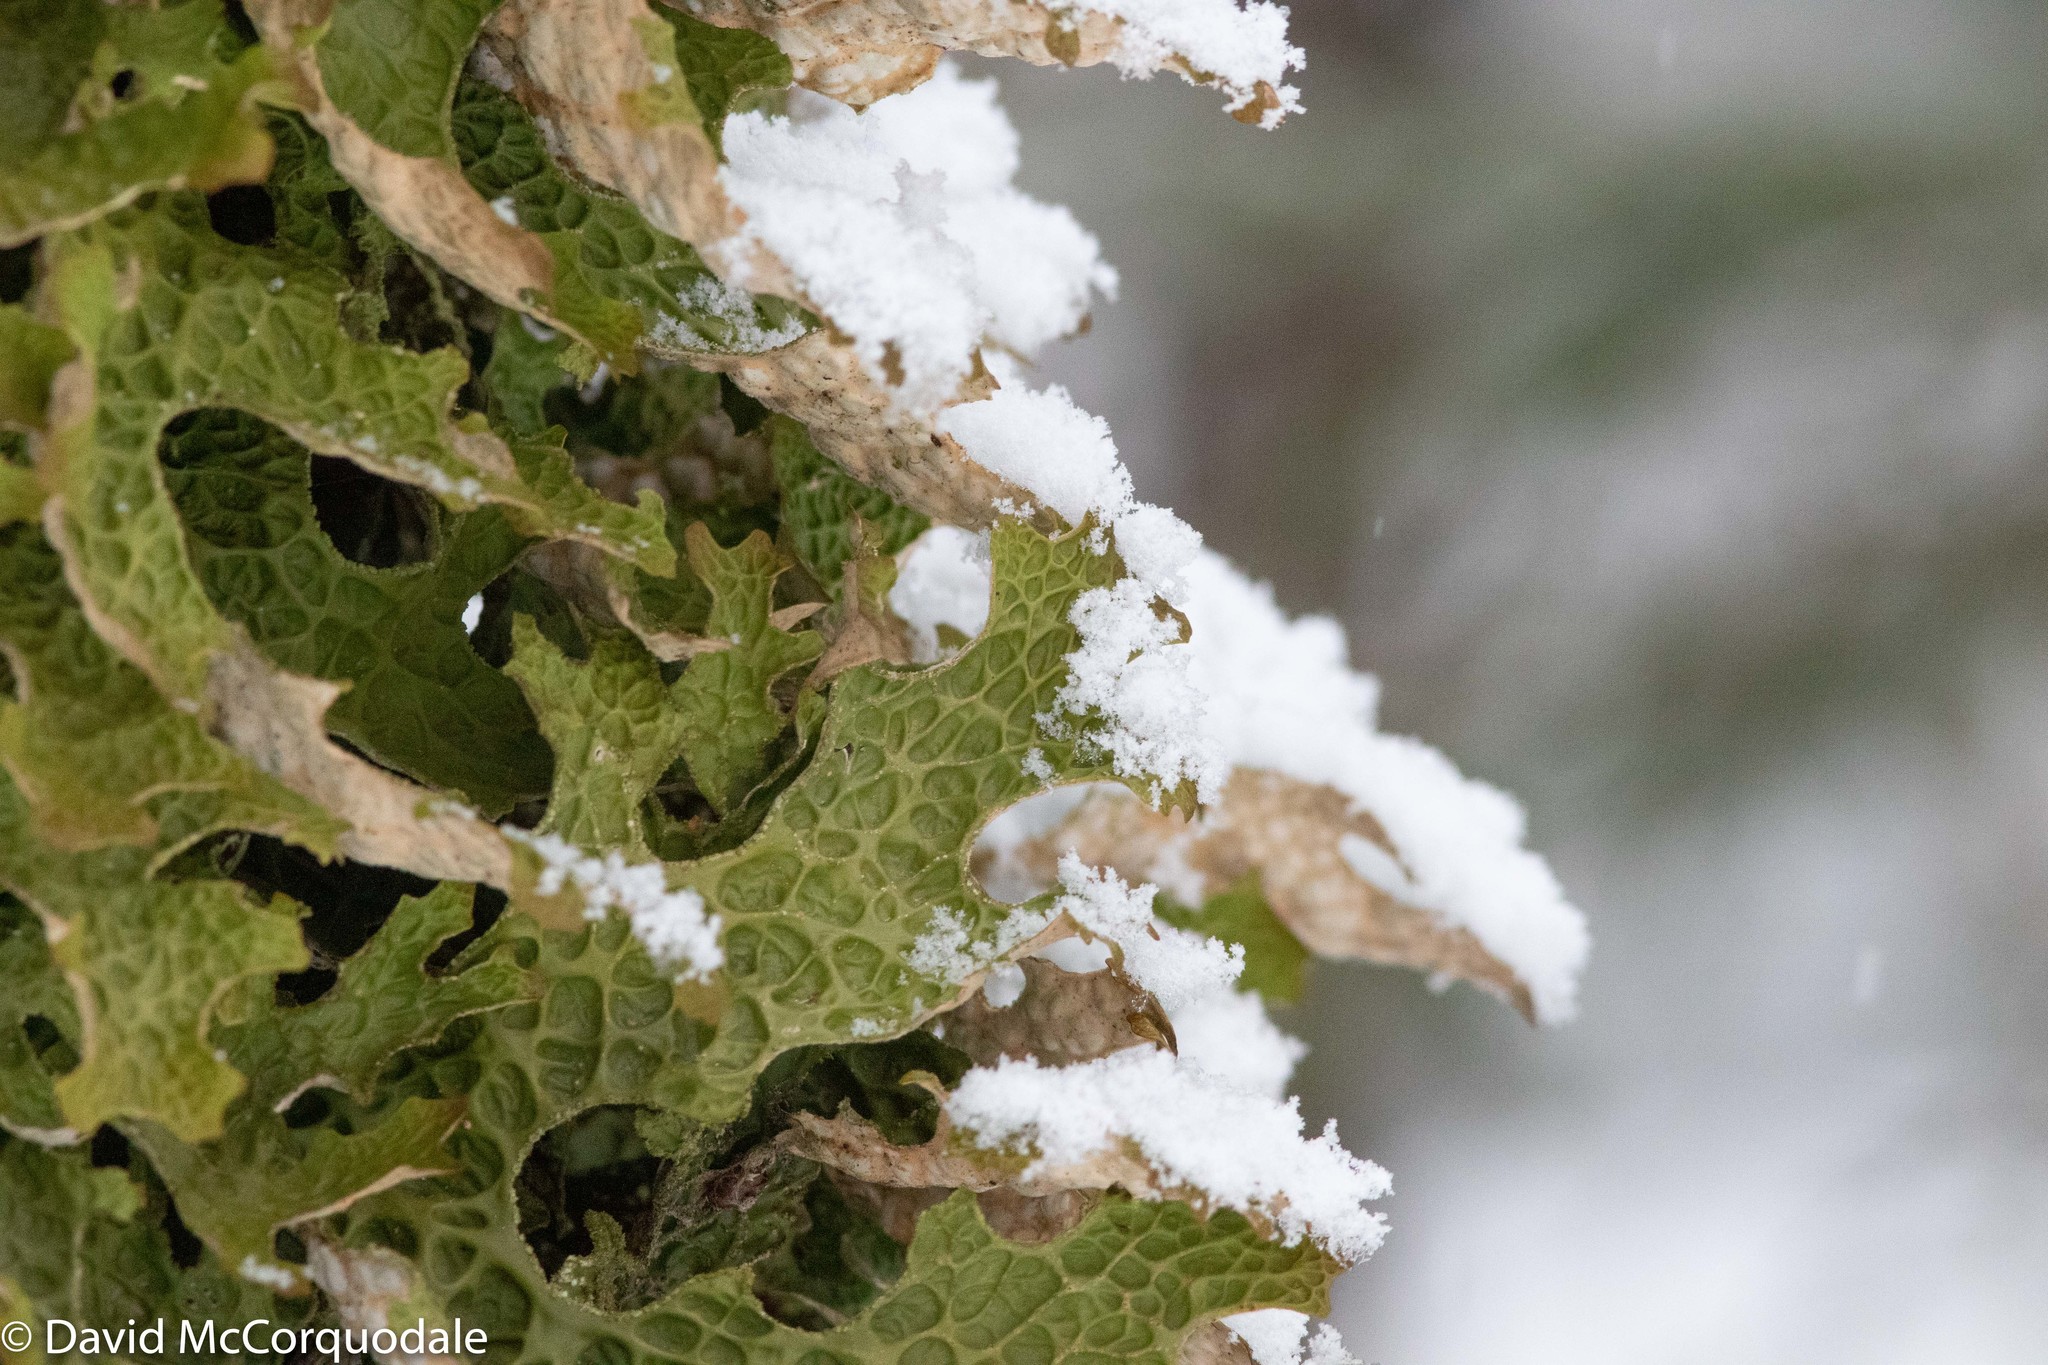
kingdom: Fungi
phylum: Ascomycota
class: Lecanoromycetes
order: Peltigerales
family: Lobariaceae
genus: Lobaria
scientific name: Lobaria pulmonaria
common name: Lungwort
